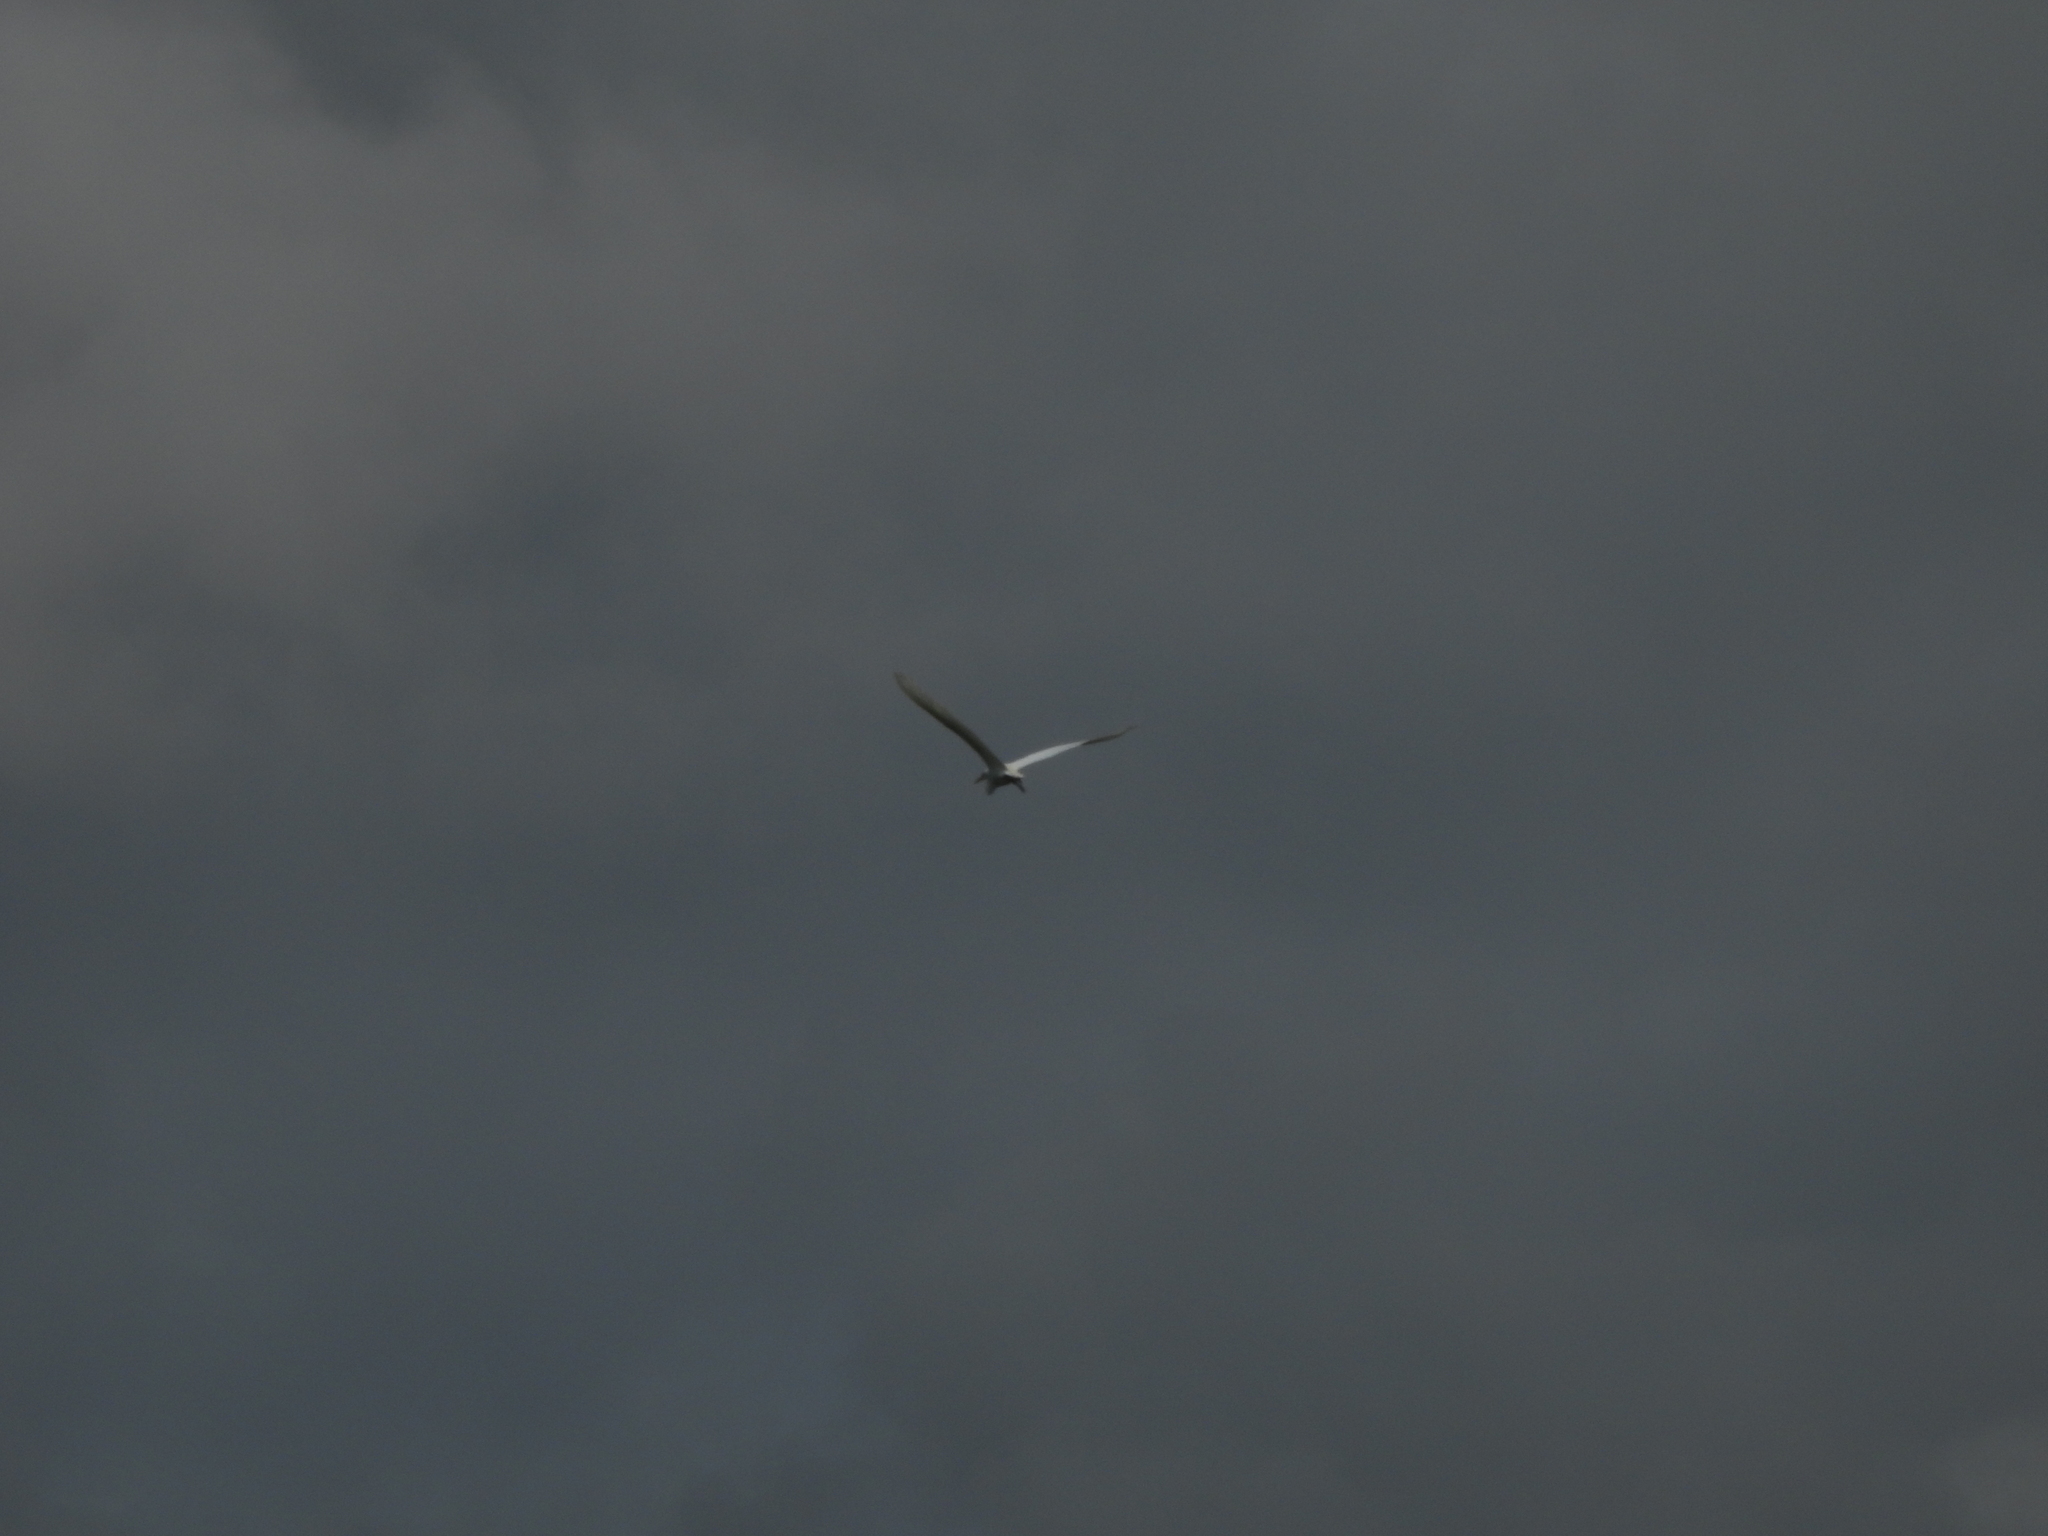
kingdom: Animalia
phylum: Chordata
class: Aves
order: Pelecaniformes
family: Ardeidae
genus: Ardea
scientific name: Ardea alba
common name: Great egret
